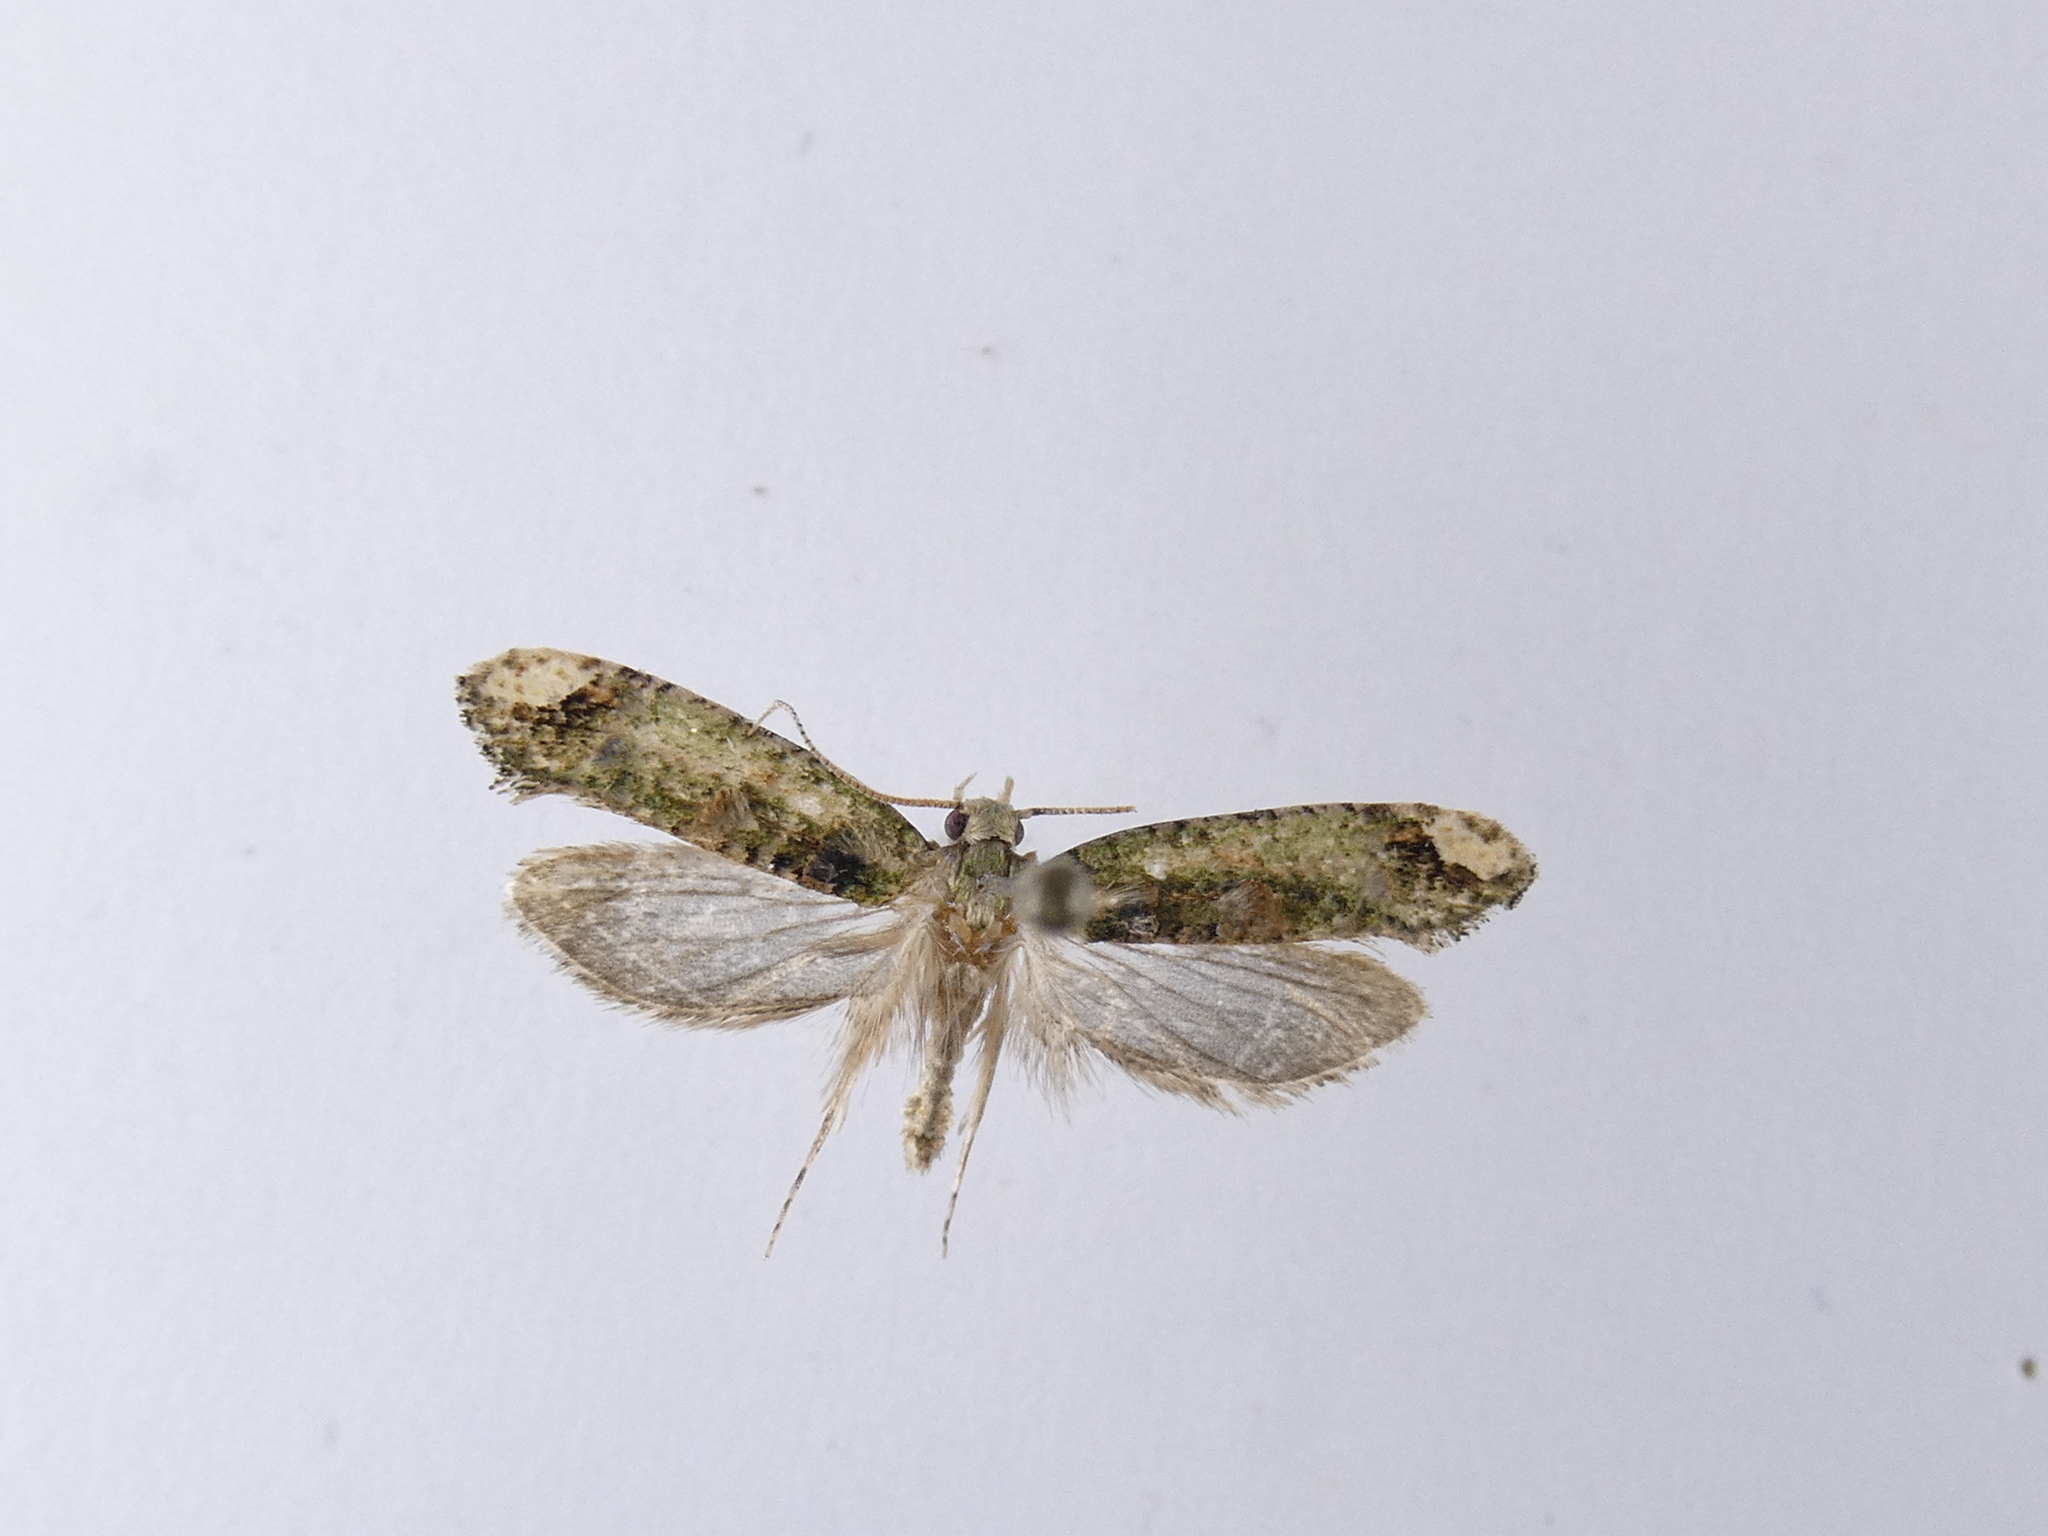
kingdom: Animalia
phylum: Arthropoda
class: Insecta
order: Lepidoptera
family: Tineidae
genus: Lysiphragma
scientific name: Lysiphragma mixochlora
